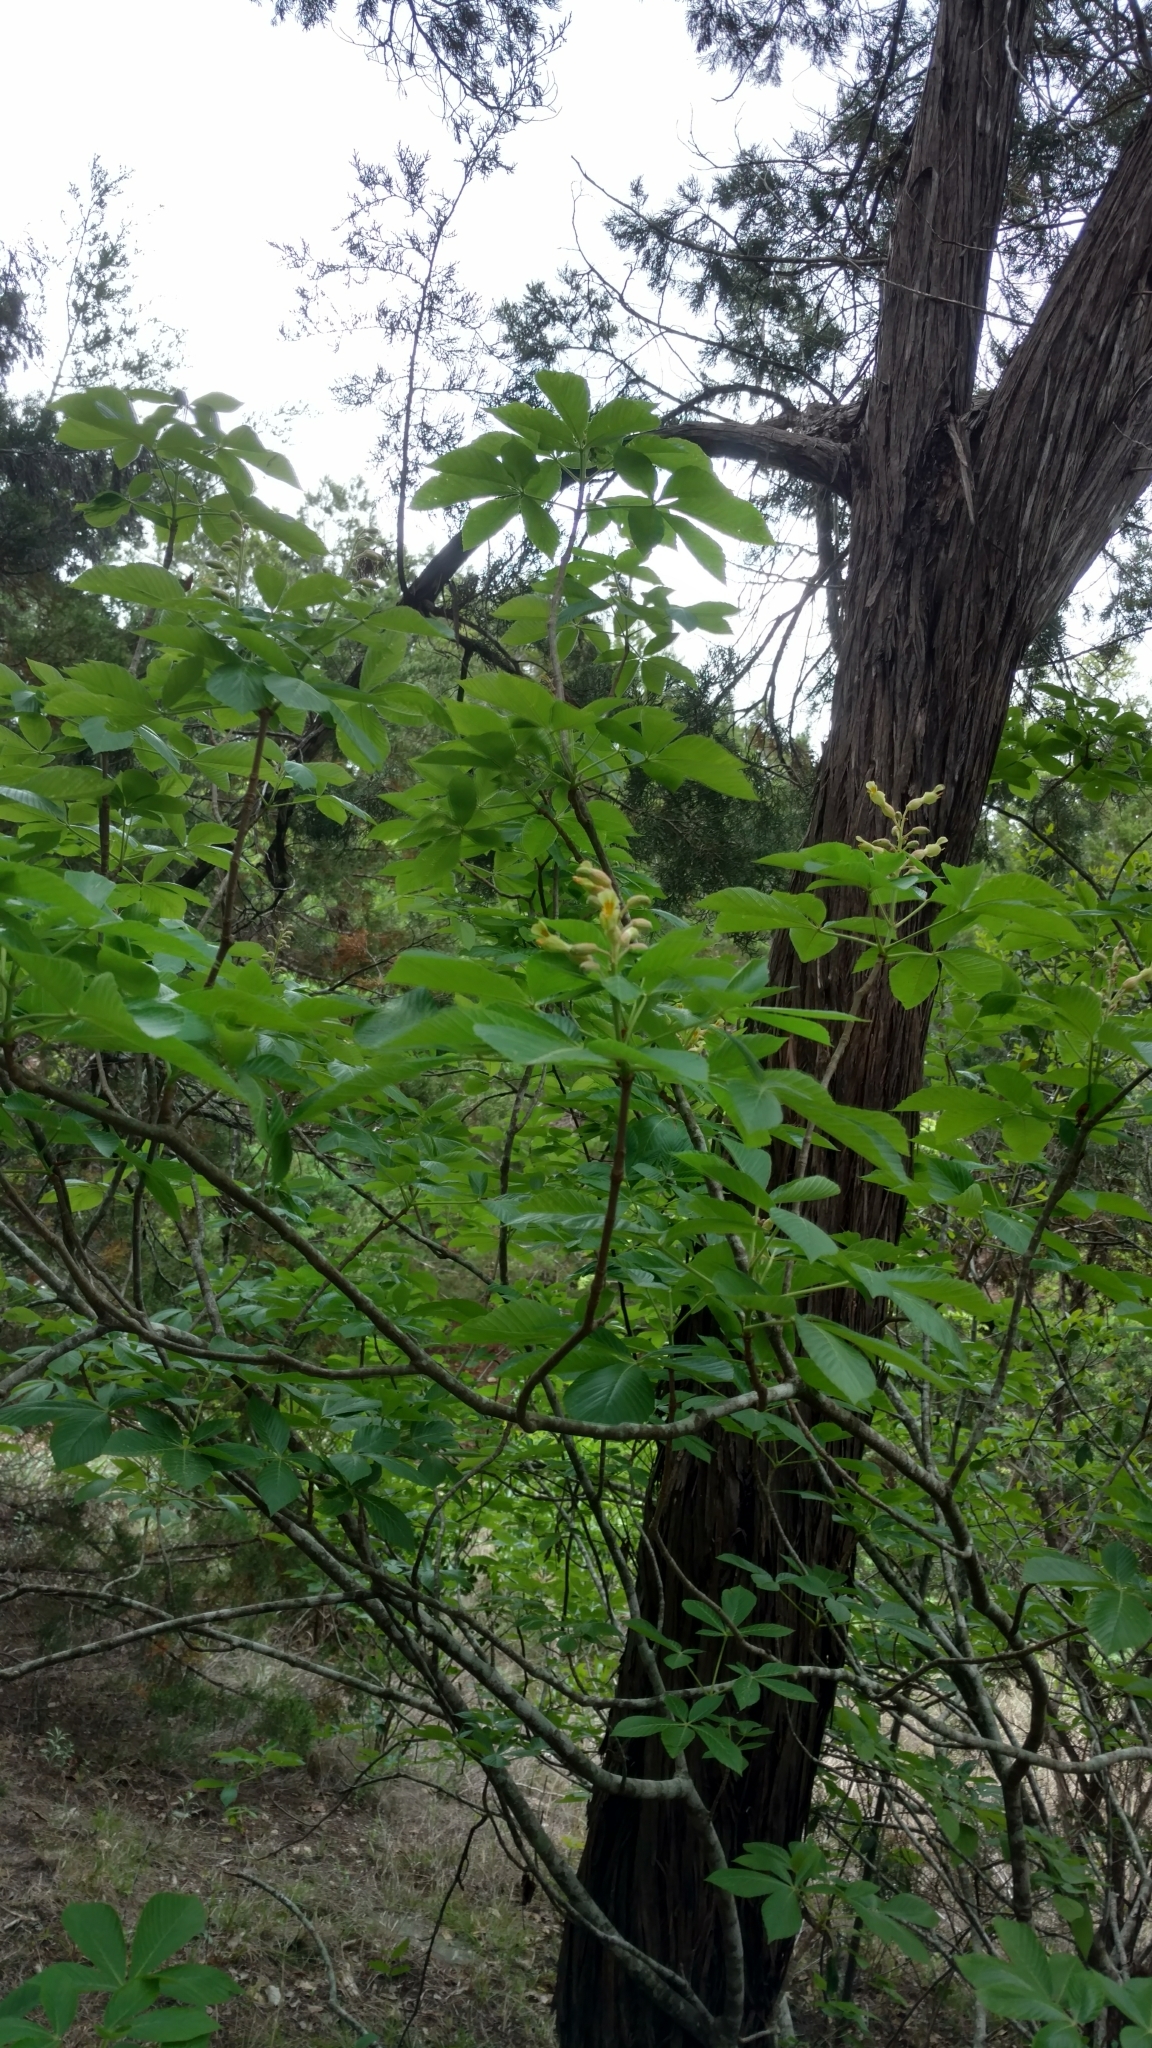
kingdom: Plantae
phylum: Tracheophyta
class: Magnoliopsida
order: Sapindales
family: Sapindaceae
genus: Aesculus
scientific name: Aesculus pavia
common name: Red buckeye
